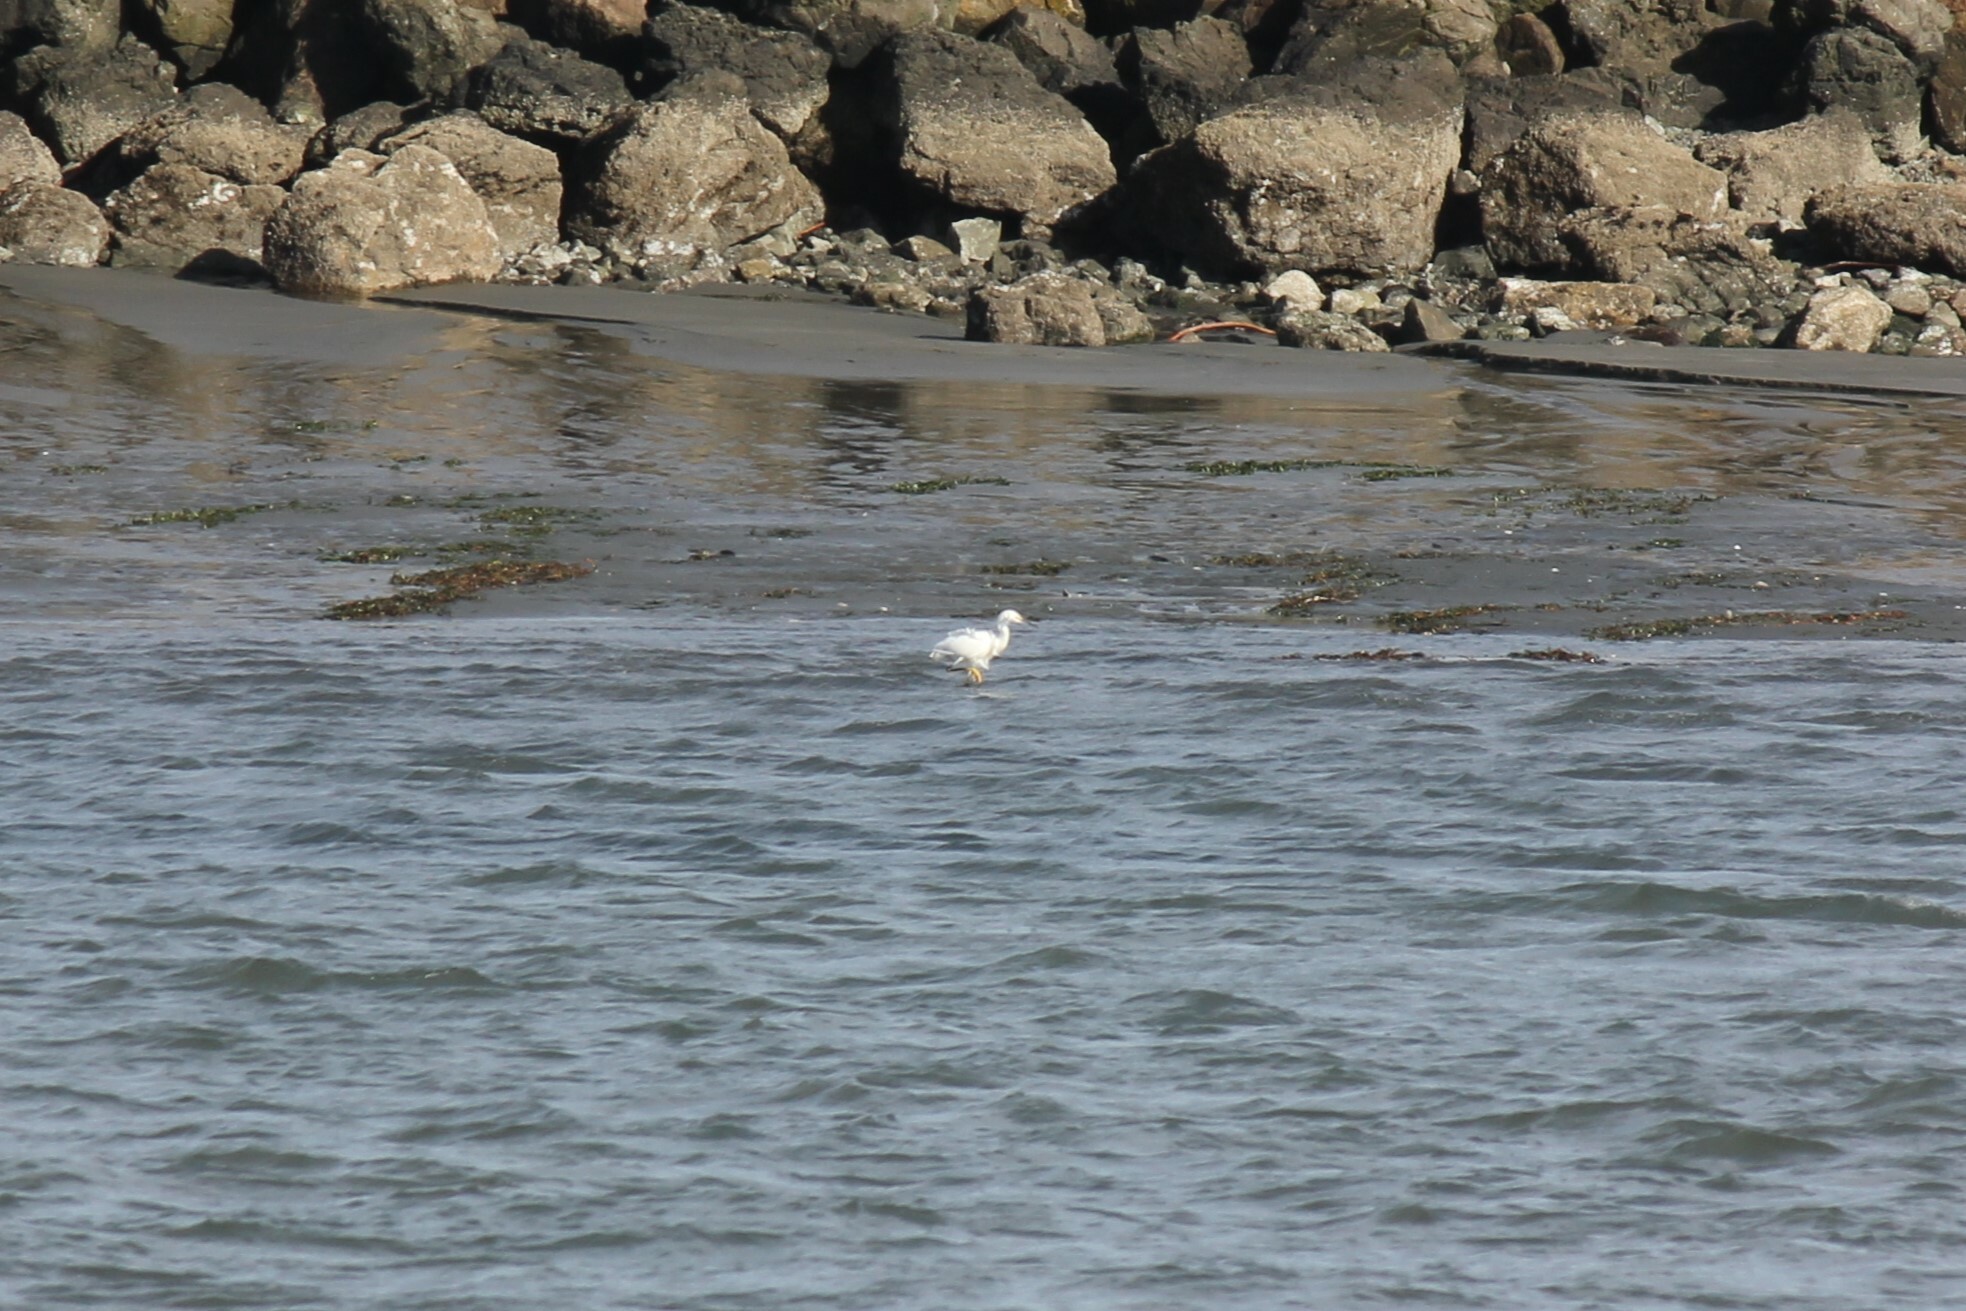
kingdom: Animalia
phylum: Chordata
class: Aves
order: Pelecaniformes
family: Ardeidae
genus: Egretta
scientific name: Egretta thula
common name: Snowy egret
